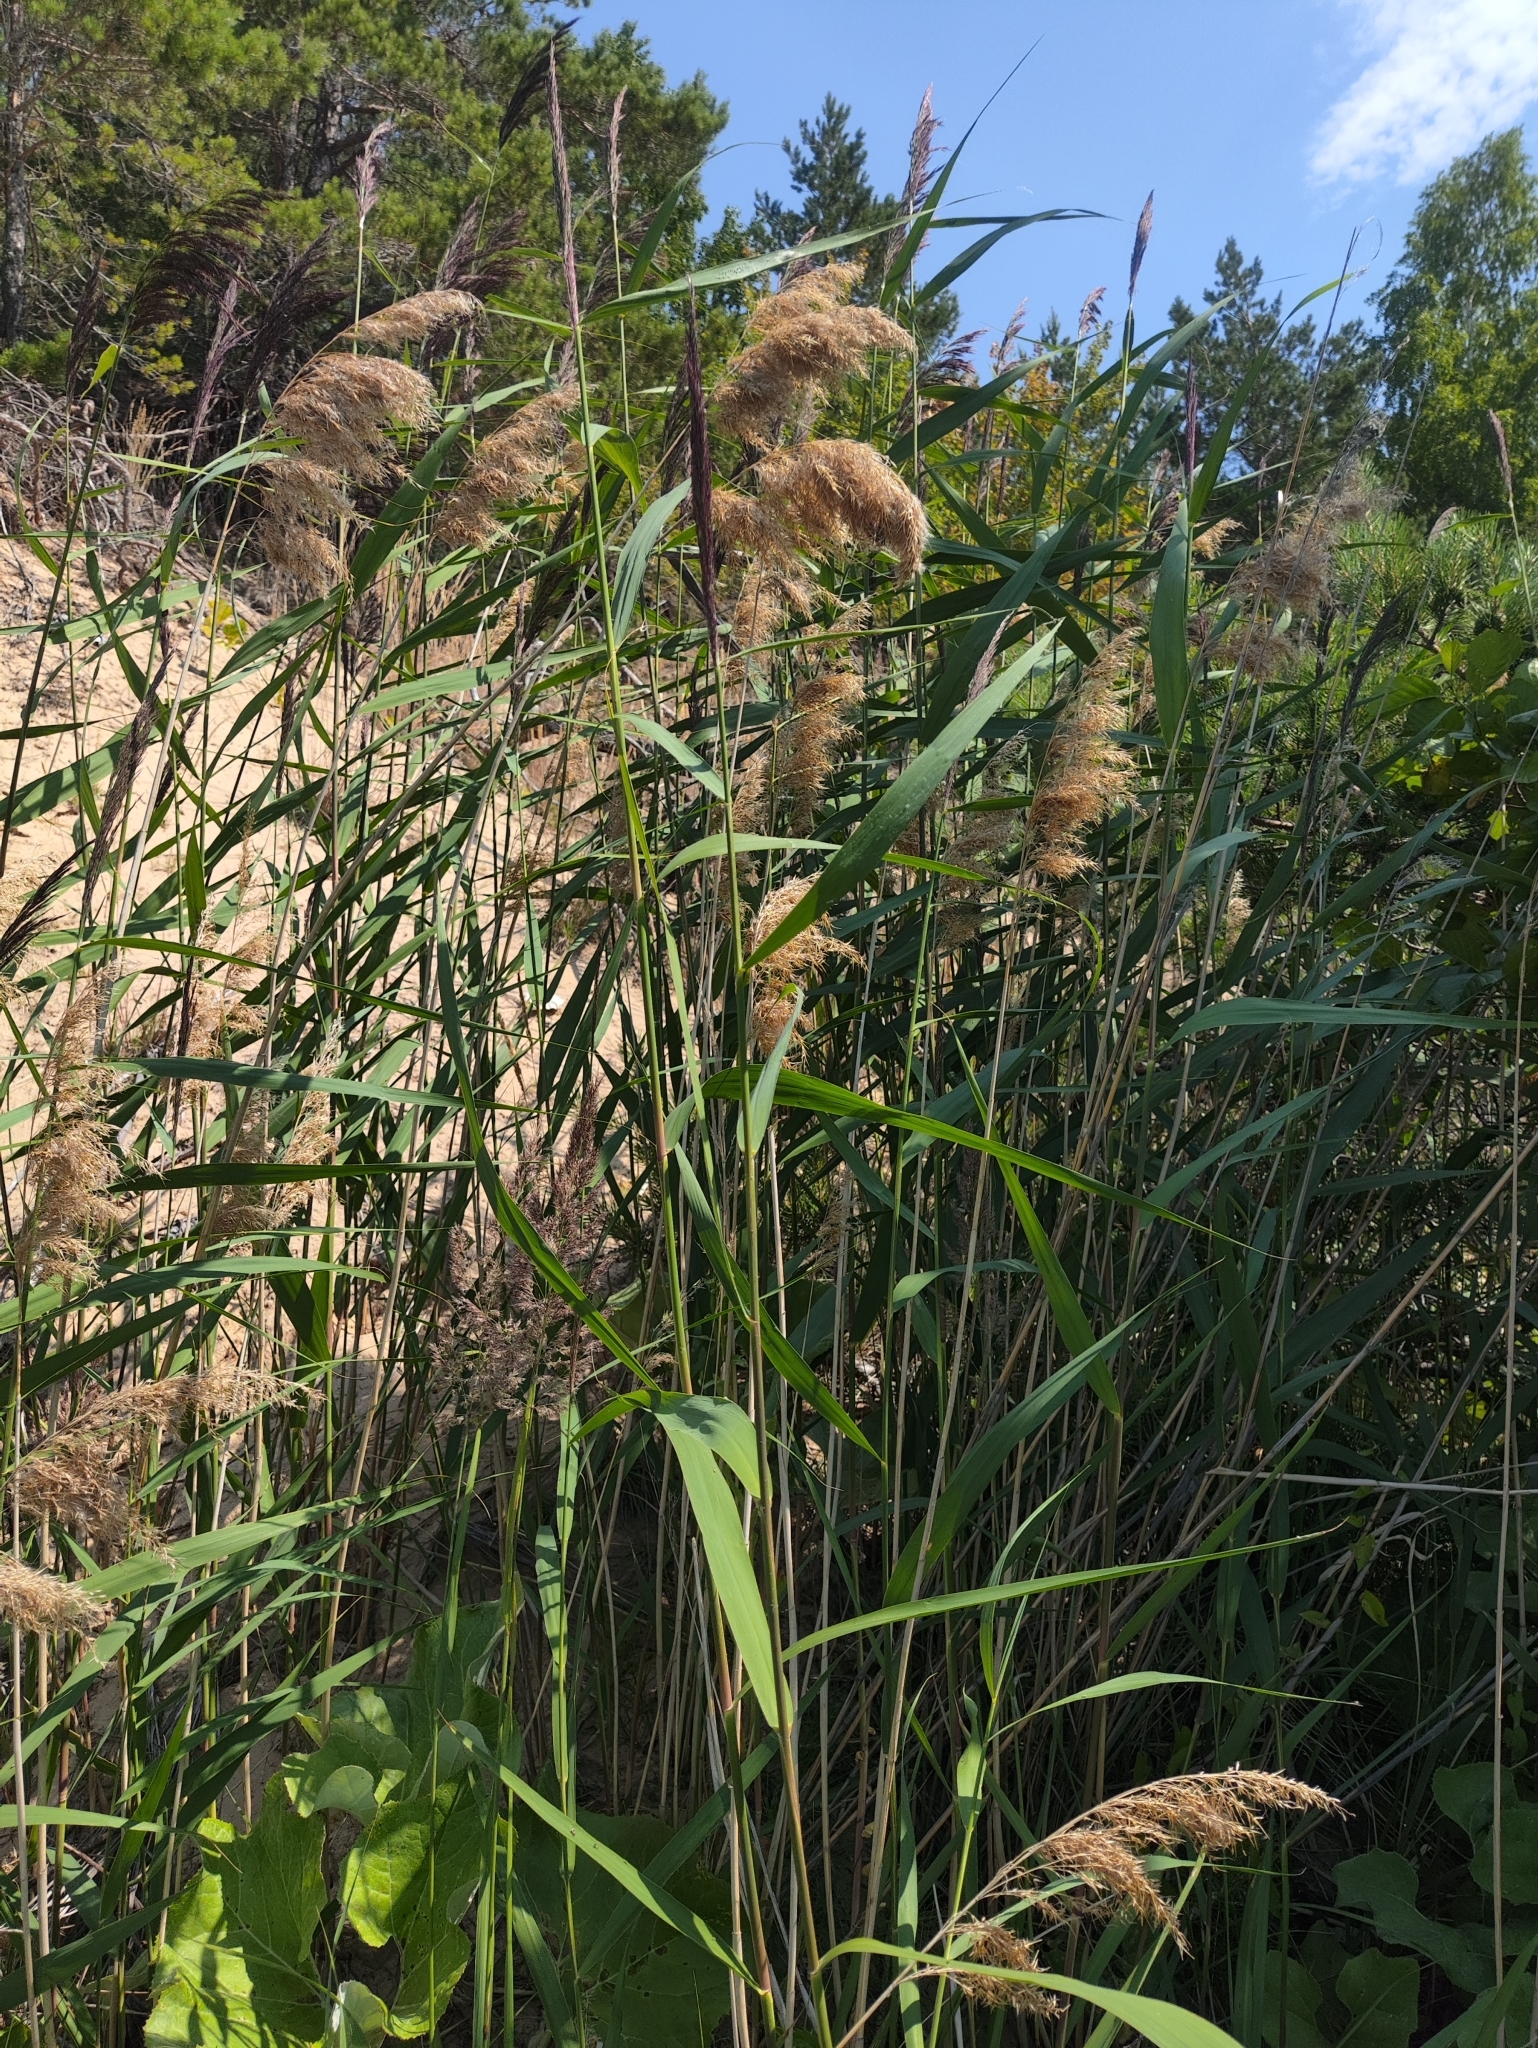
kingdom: Plantae
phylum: Tracheophyta
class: Liliopsida
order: Poales
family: Poaceae
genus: Phragmites
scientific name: Phragmites australis
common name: Common reed
